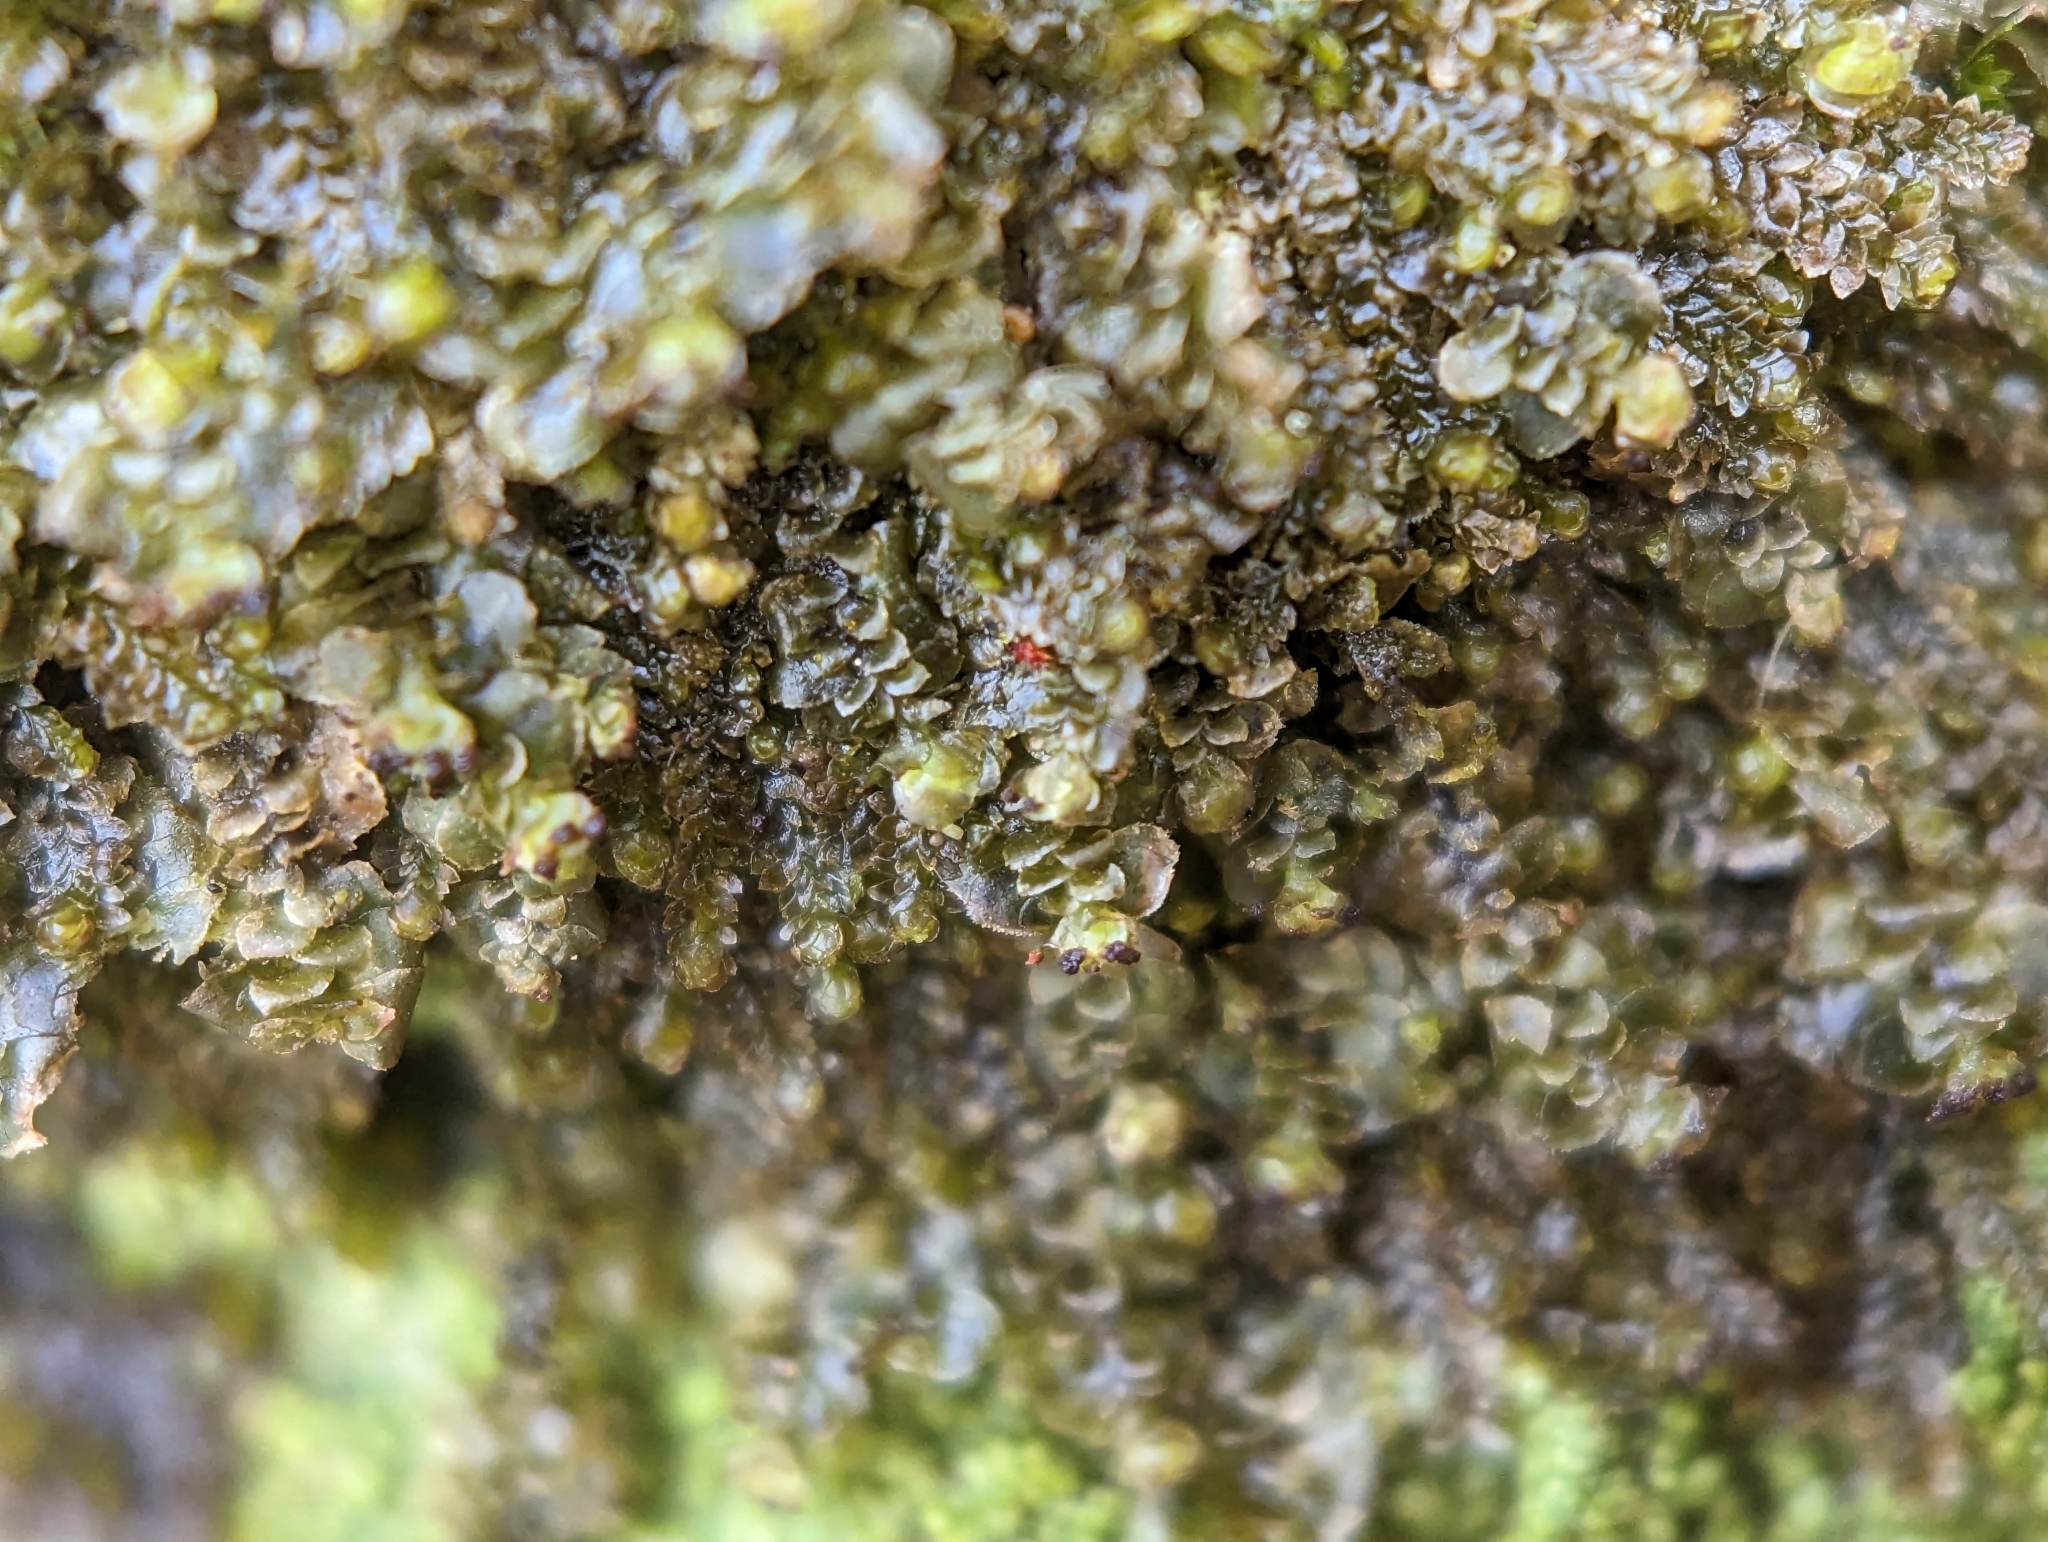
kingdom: Plantae
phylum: Marchantiophyta
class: Jungermanniopsida
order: Jungermanniales
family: Scapaniaceae
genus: Scapania
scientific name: Scapania nemorea
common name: Grove earwort
